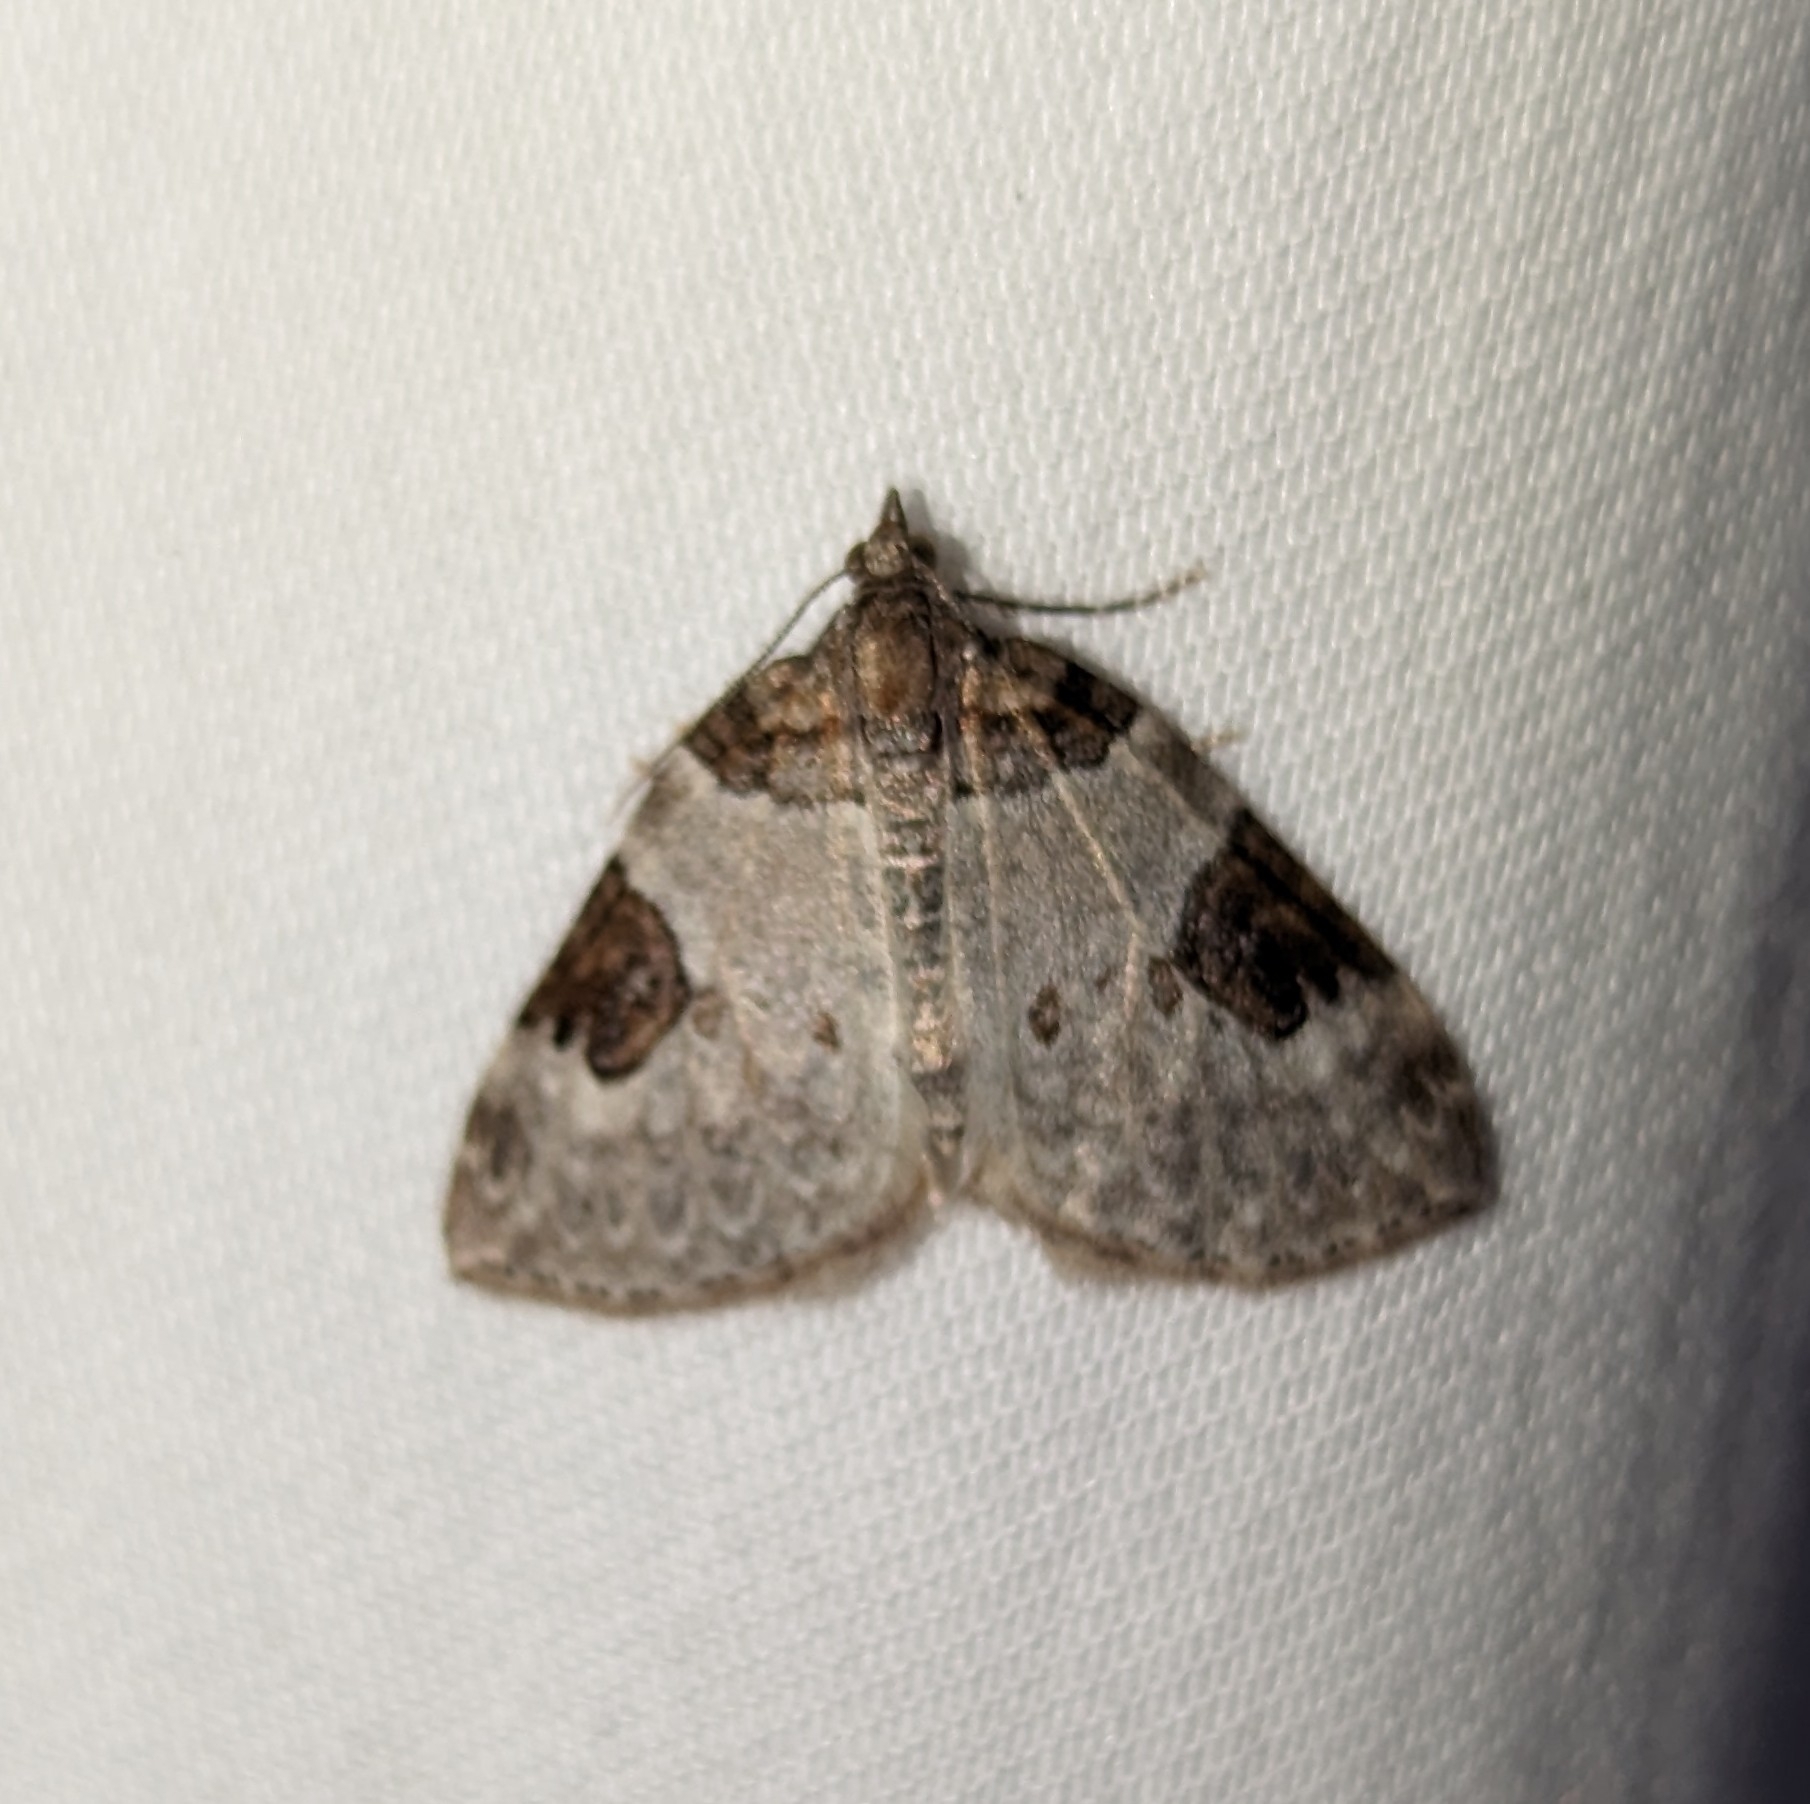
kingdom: Animalia
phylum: Arthropoda
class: Insecta
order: Lepidoptera
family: Geometridae
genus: Plemyria
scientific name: Plemyria georgii
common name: George's carpet moth
